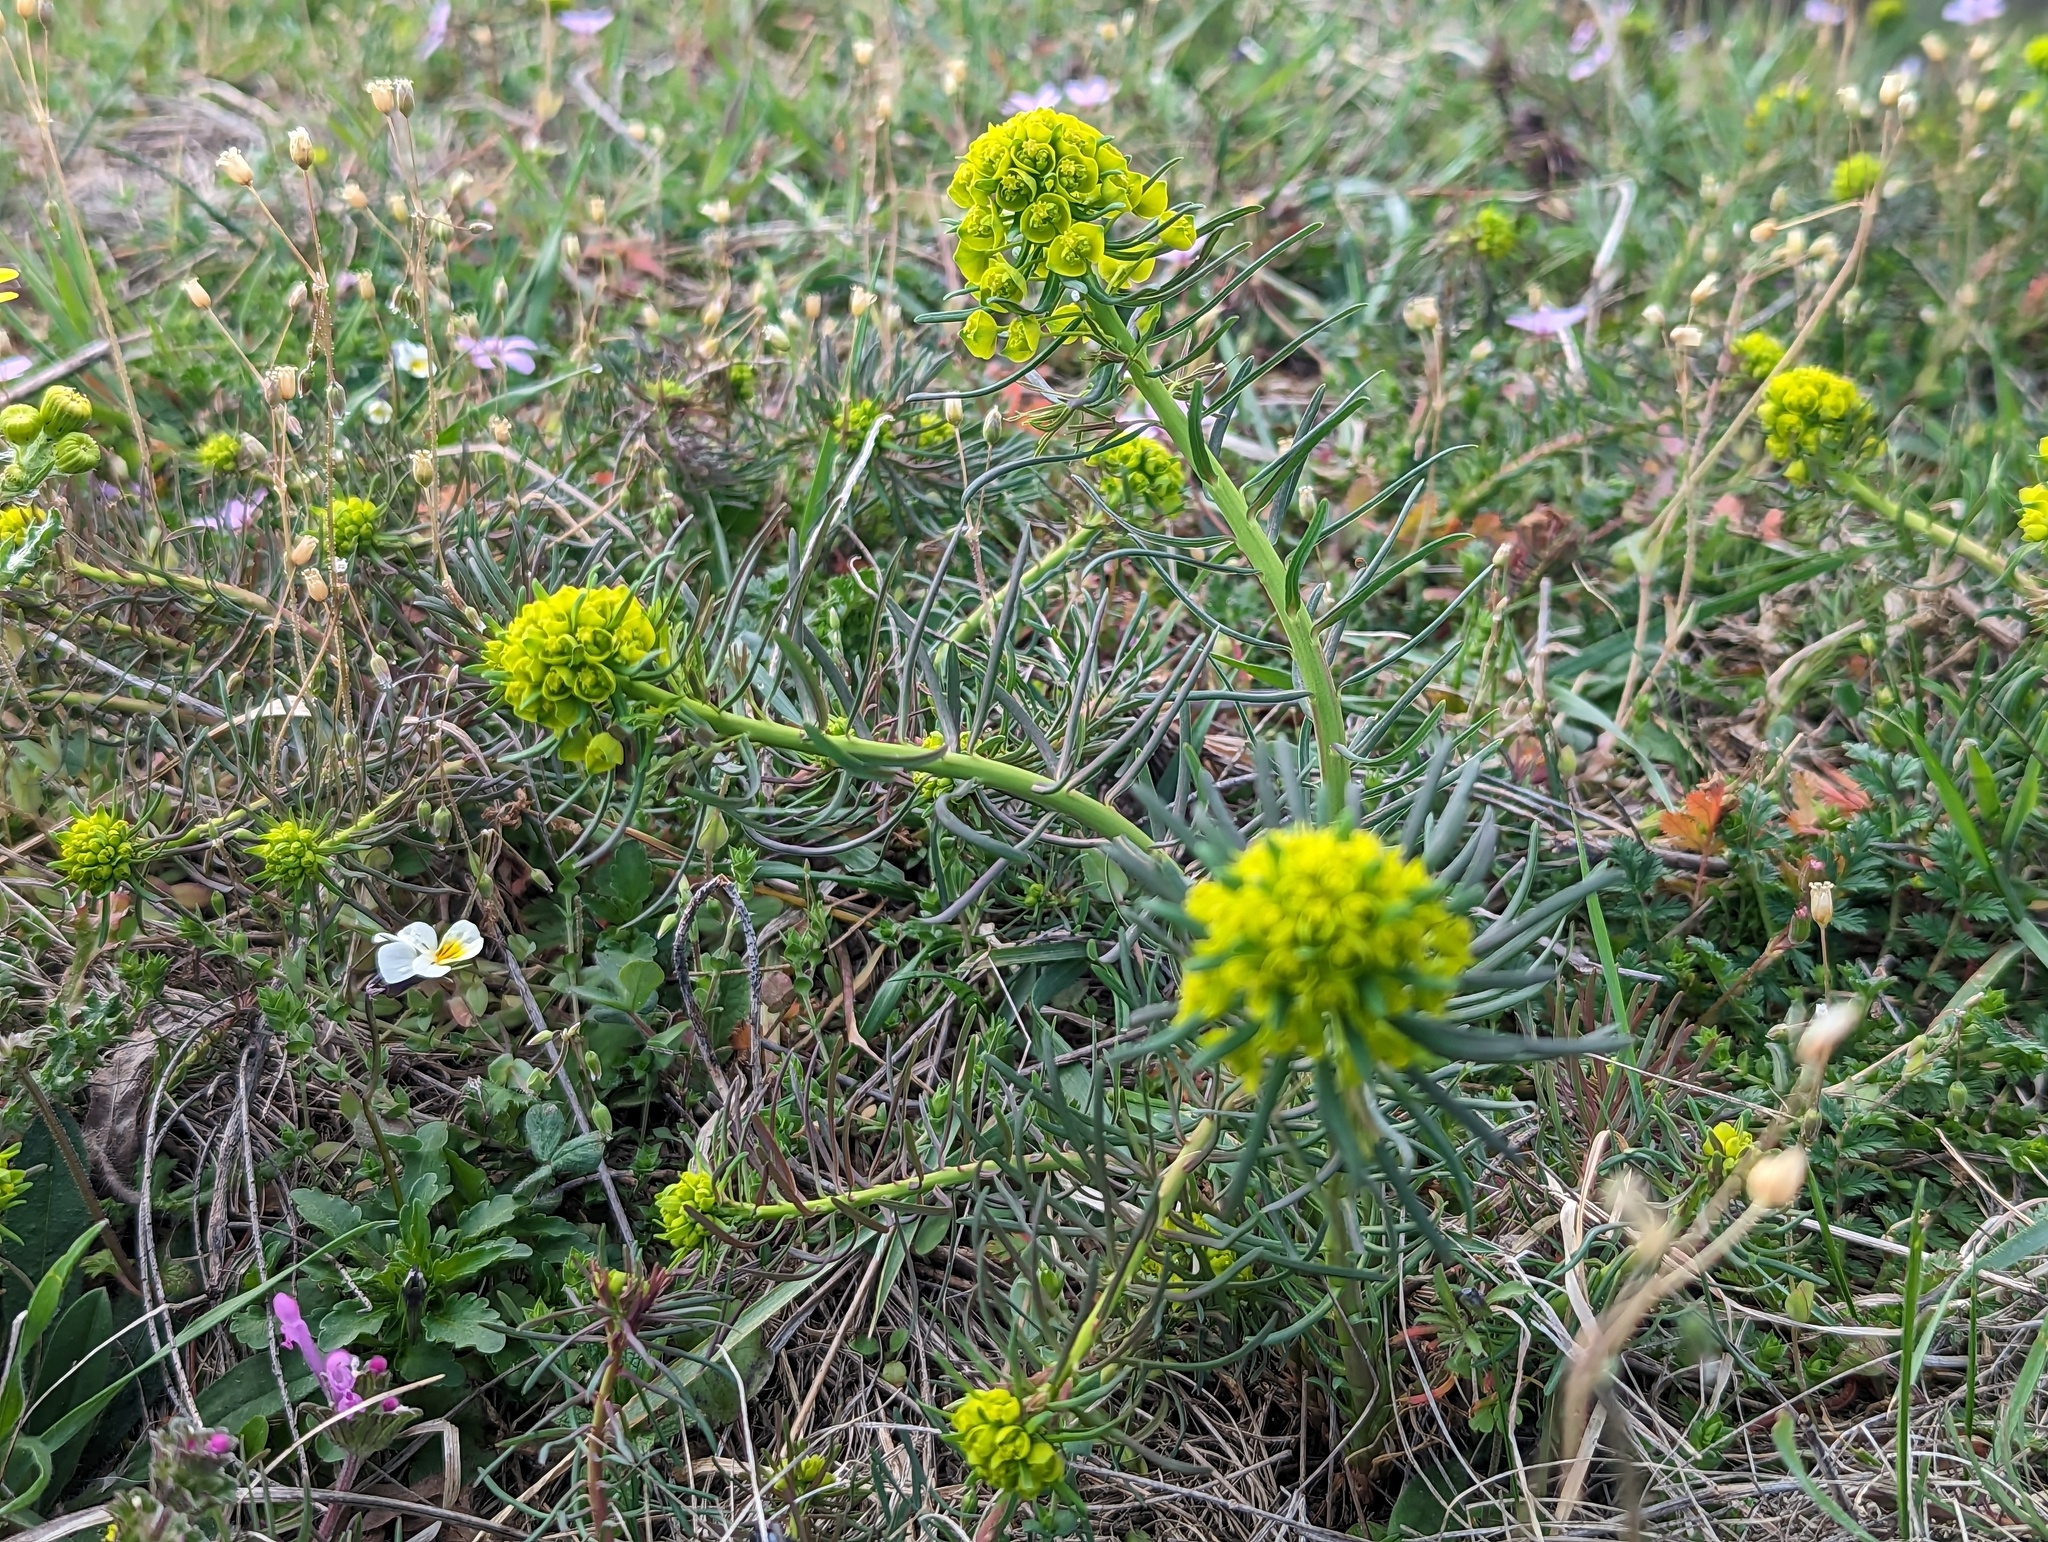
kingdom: Plantae
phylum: Tracheophyta
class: Magnoliopsida
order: Malpighiales
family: Euphorbiaceae
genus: Euphorbia
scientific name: Euphorbia cyparissias
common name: Cypress spurge
